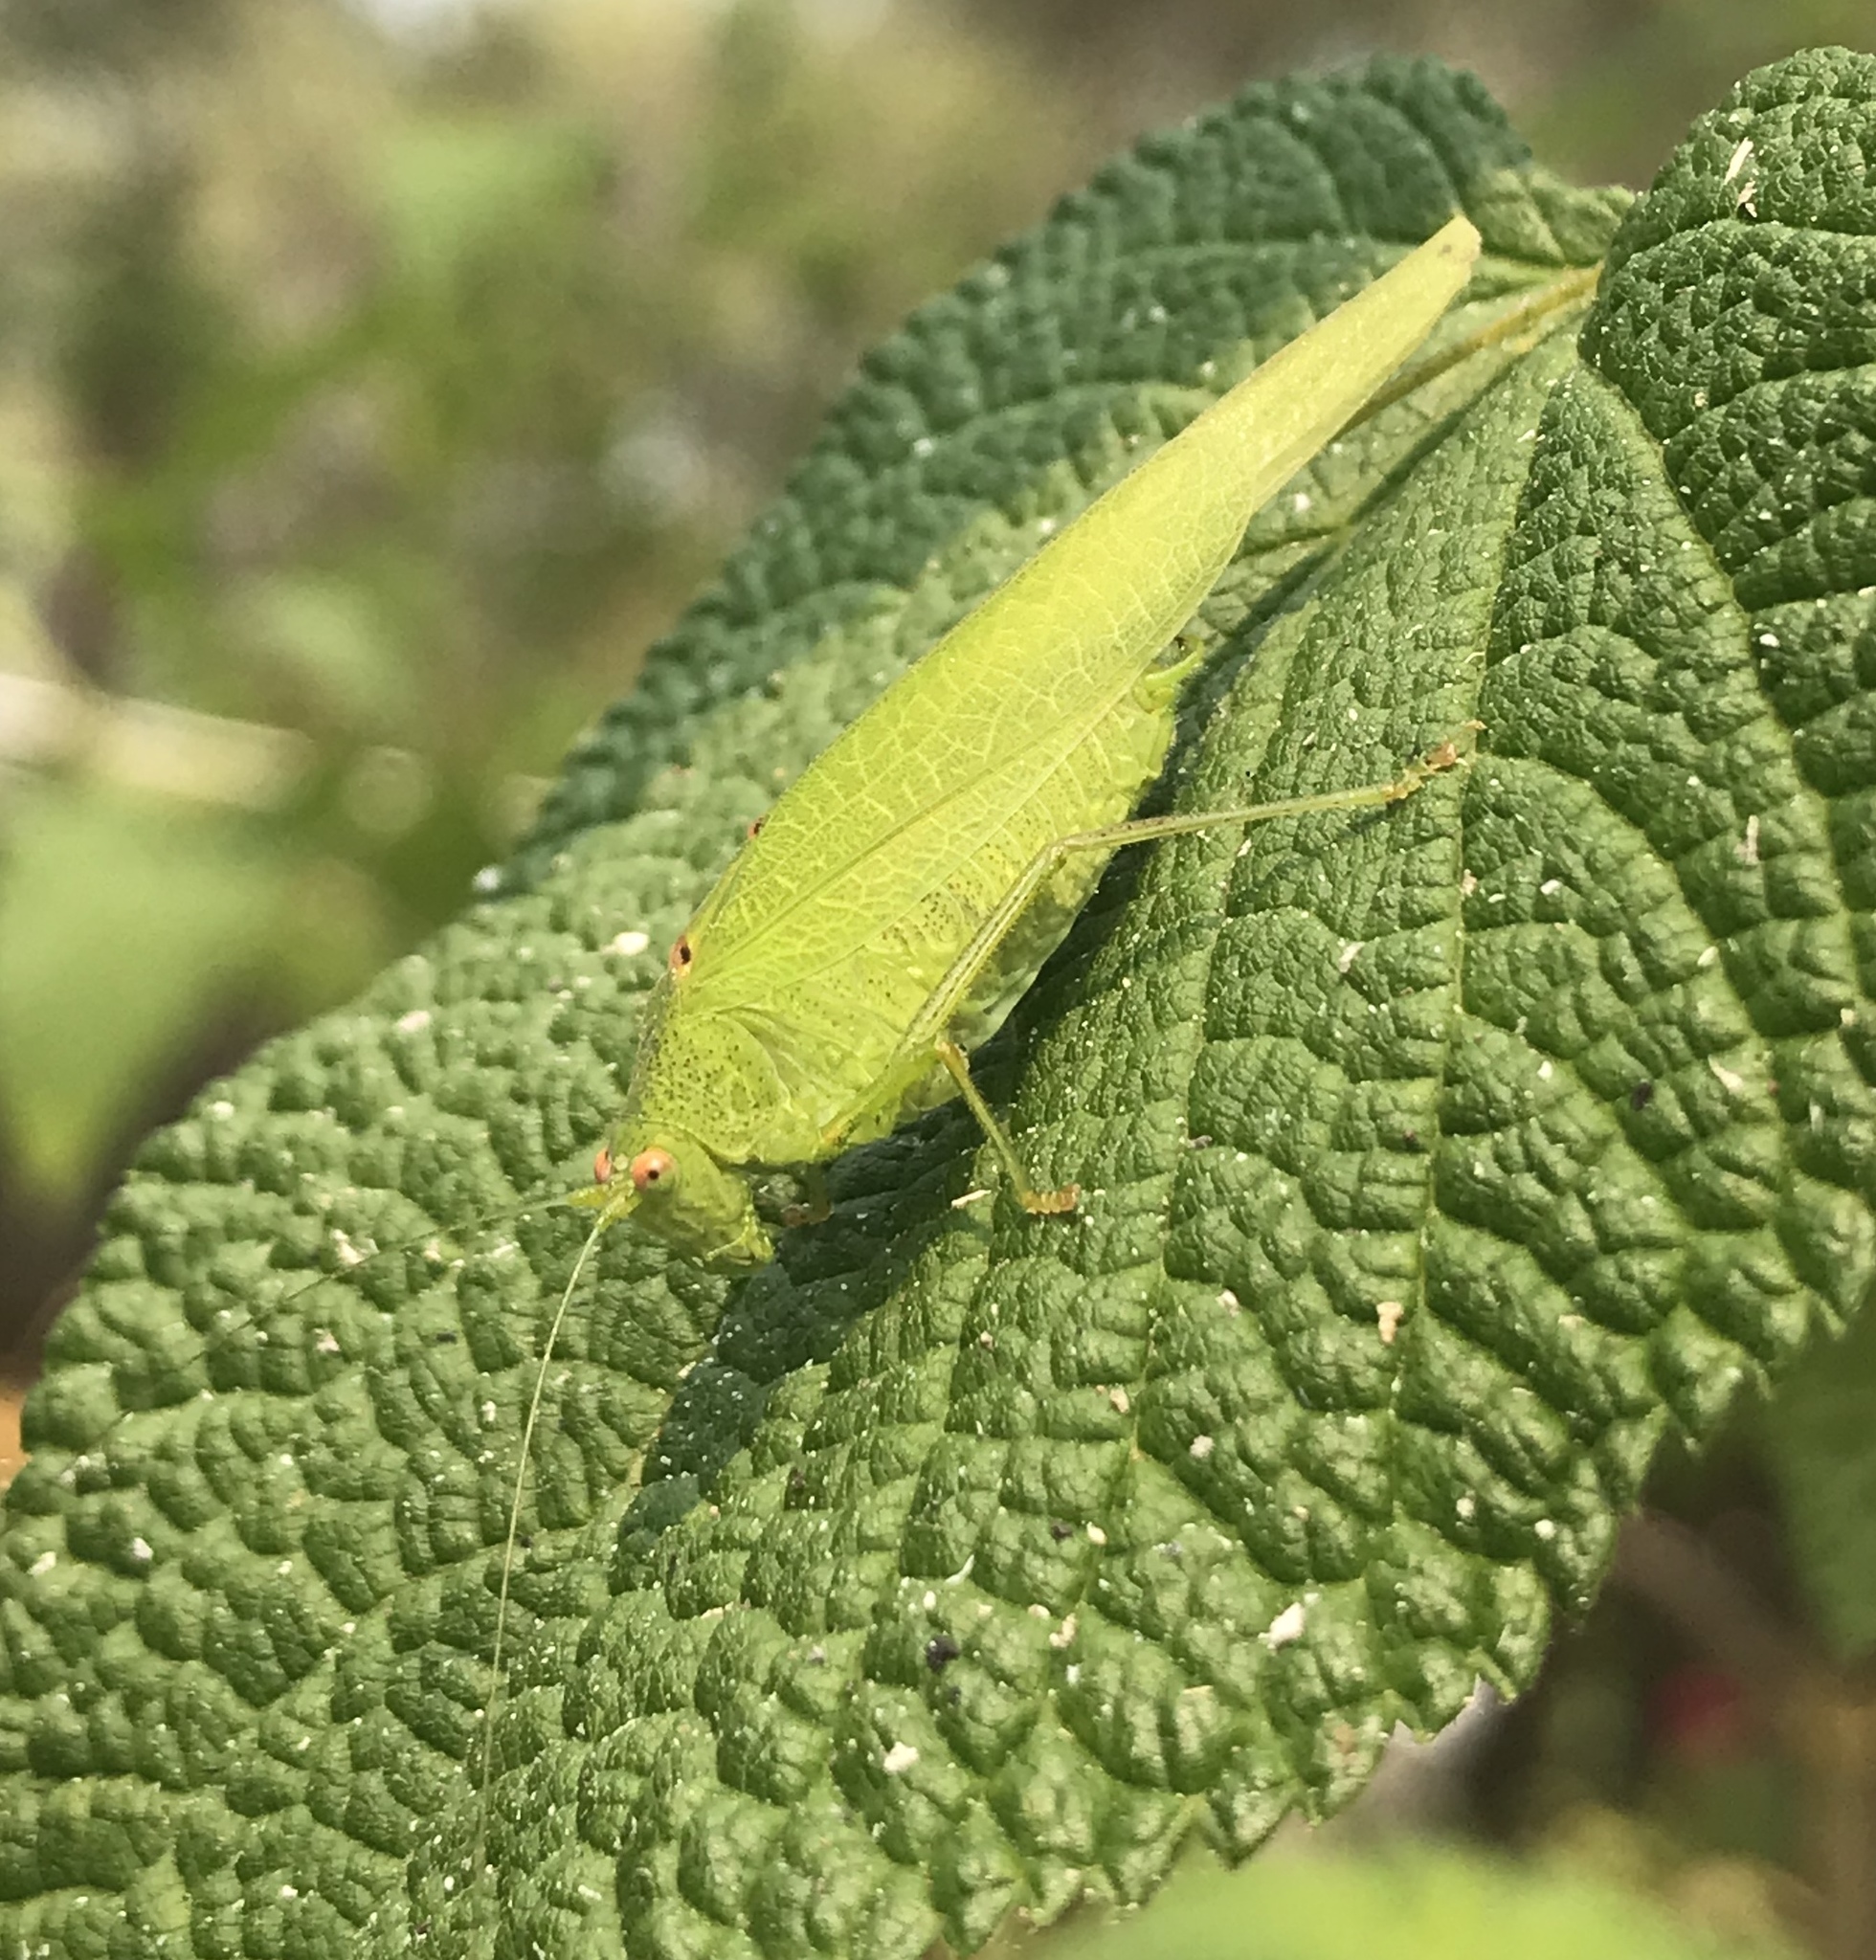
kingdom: Animalia
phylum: Arthropoda
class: Insecta
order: Orthoptera
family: Tettigoniidae
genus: Phaneroptera
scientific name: Phaneroptera nana
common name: Southern sickle bush-cricket
